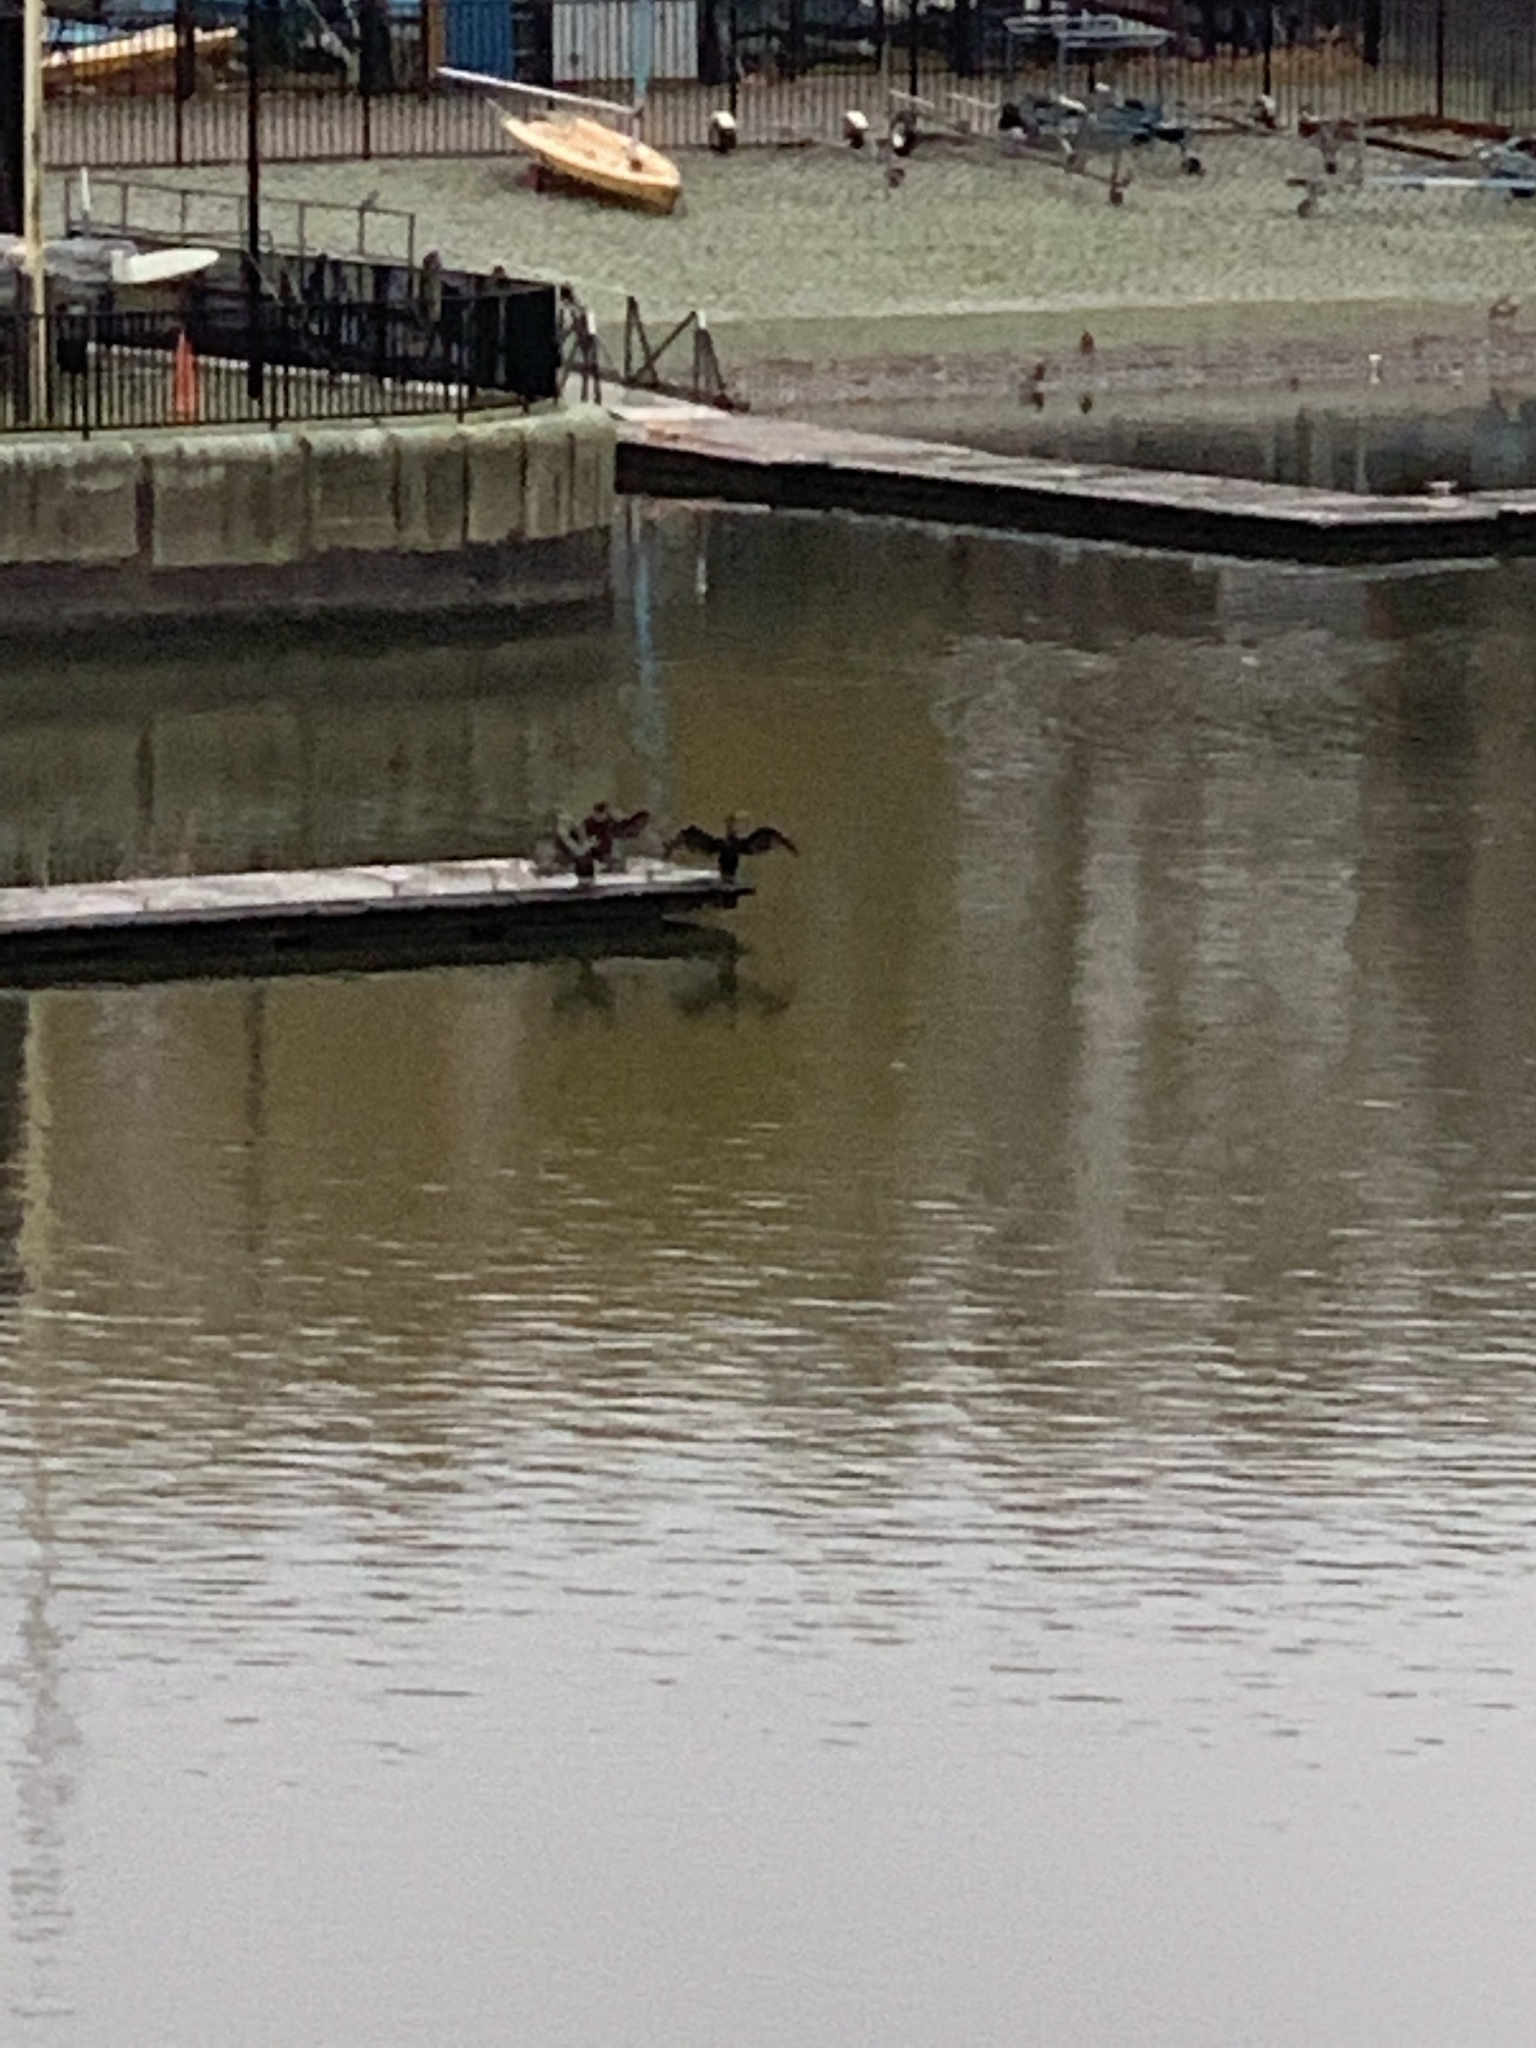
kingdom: Animalia
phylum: Chordata
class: Aves
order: Suliformes
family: Phalacrocoracidae
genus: Phalacrocorax
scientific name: Phalacrocorax carbo
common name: Great cormorant
